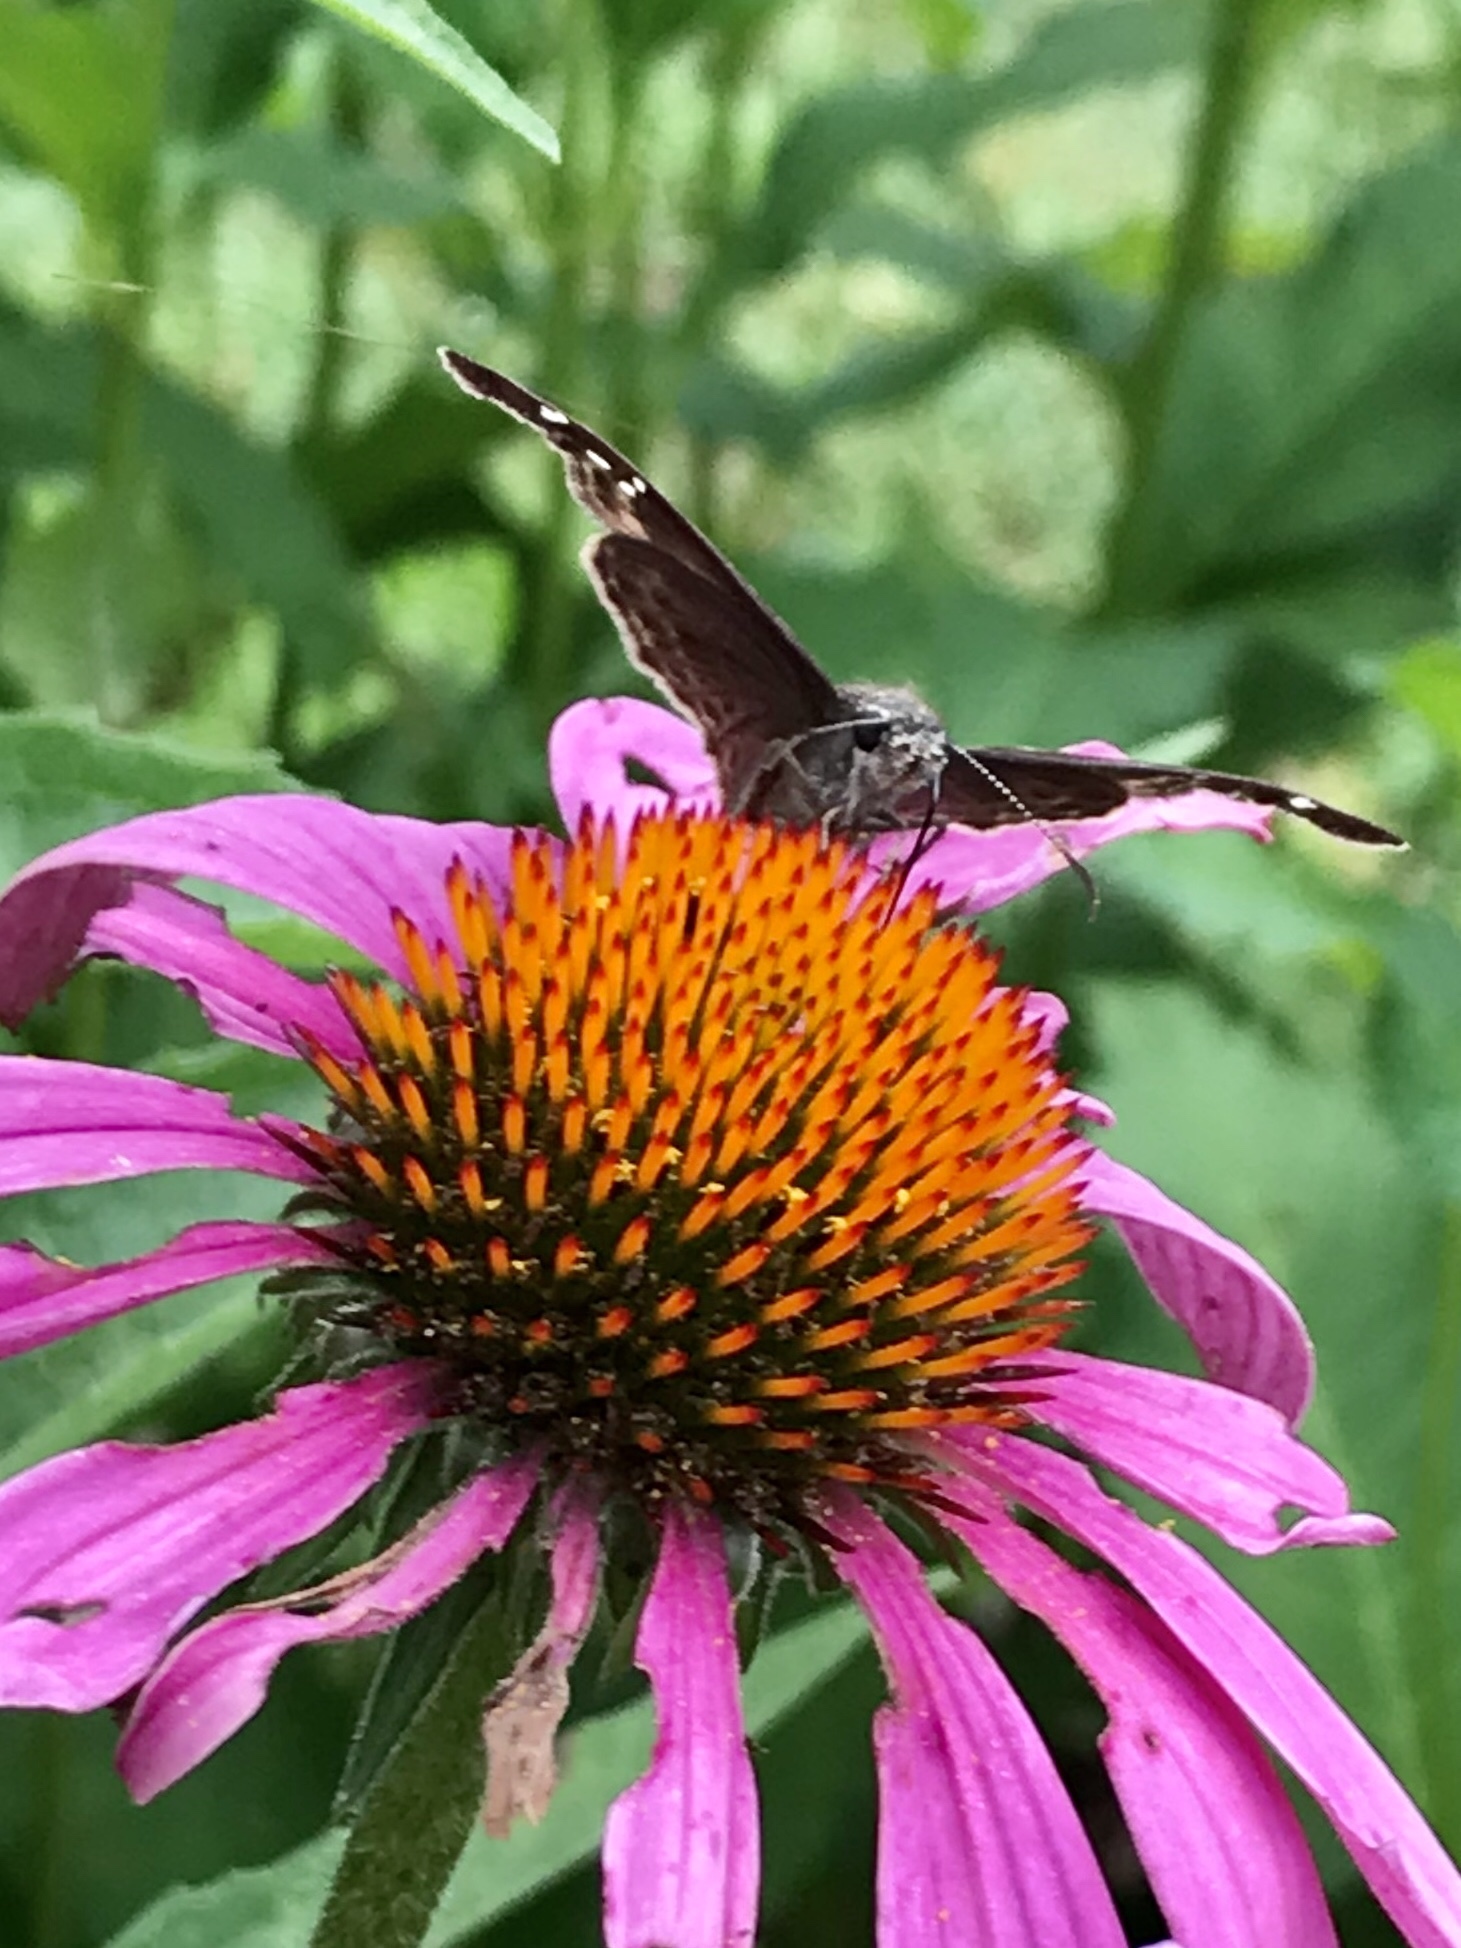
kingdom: Animalia
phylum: Arthropoda
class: Insecta
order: Lepidoptera
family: Hesperiidae
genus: Erynnis
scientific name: Erynnis horatius
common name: Horace's duskywing
